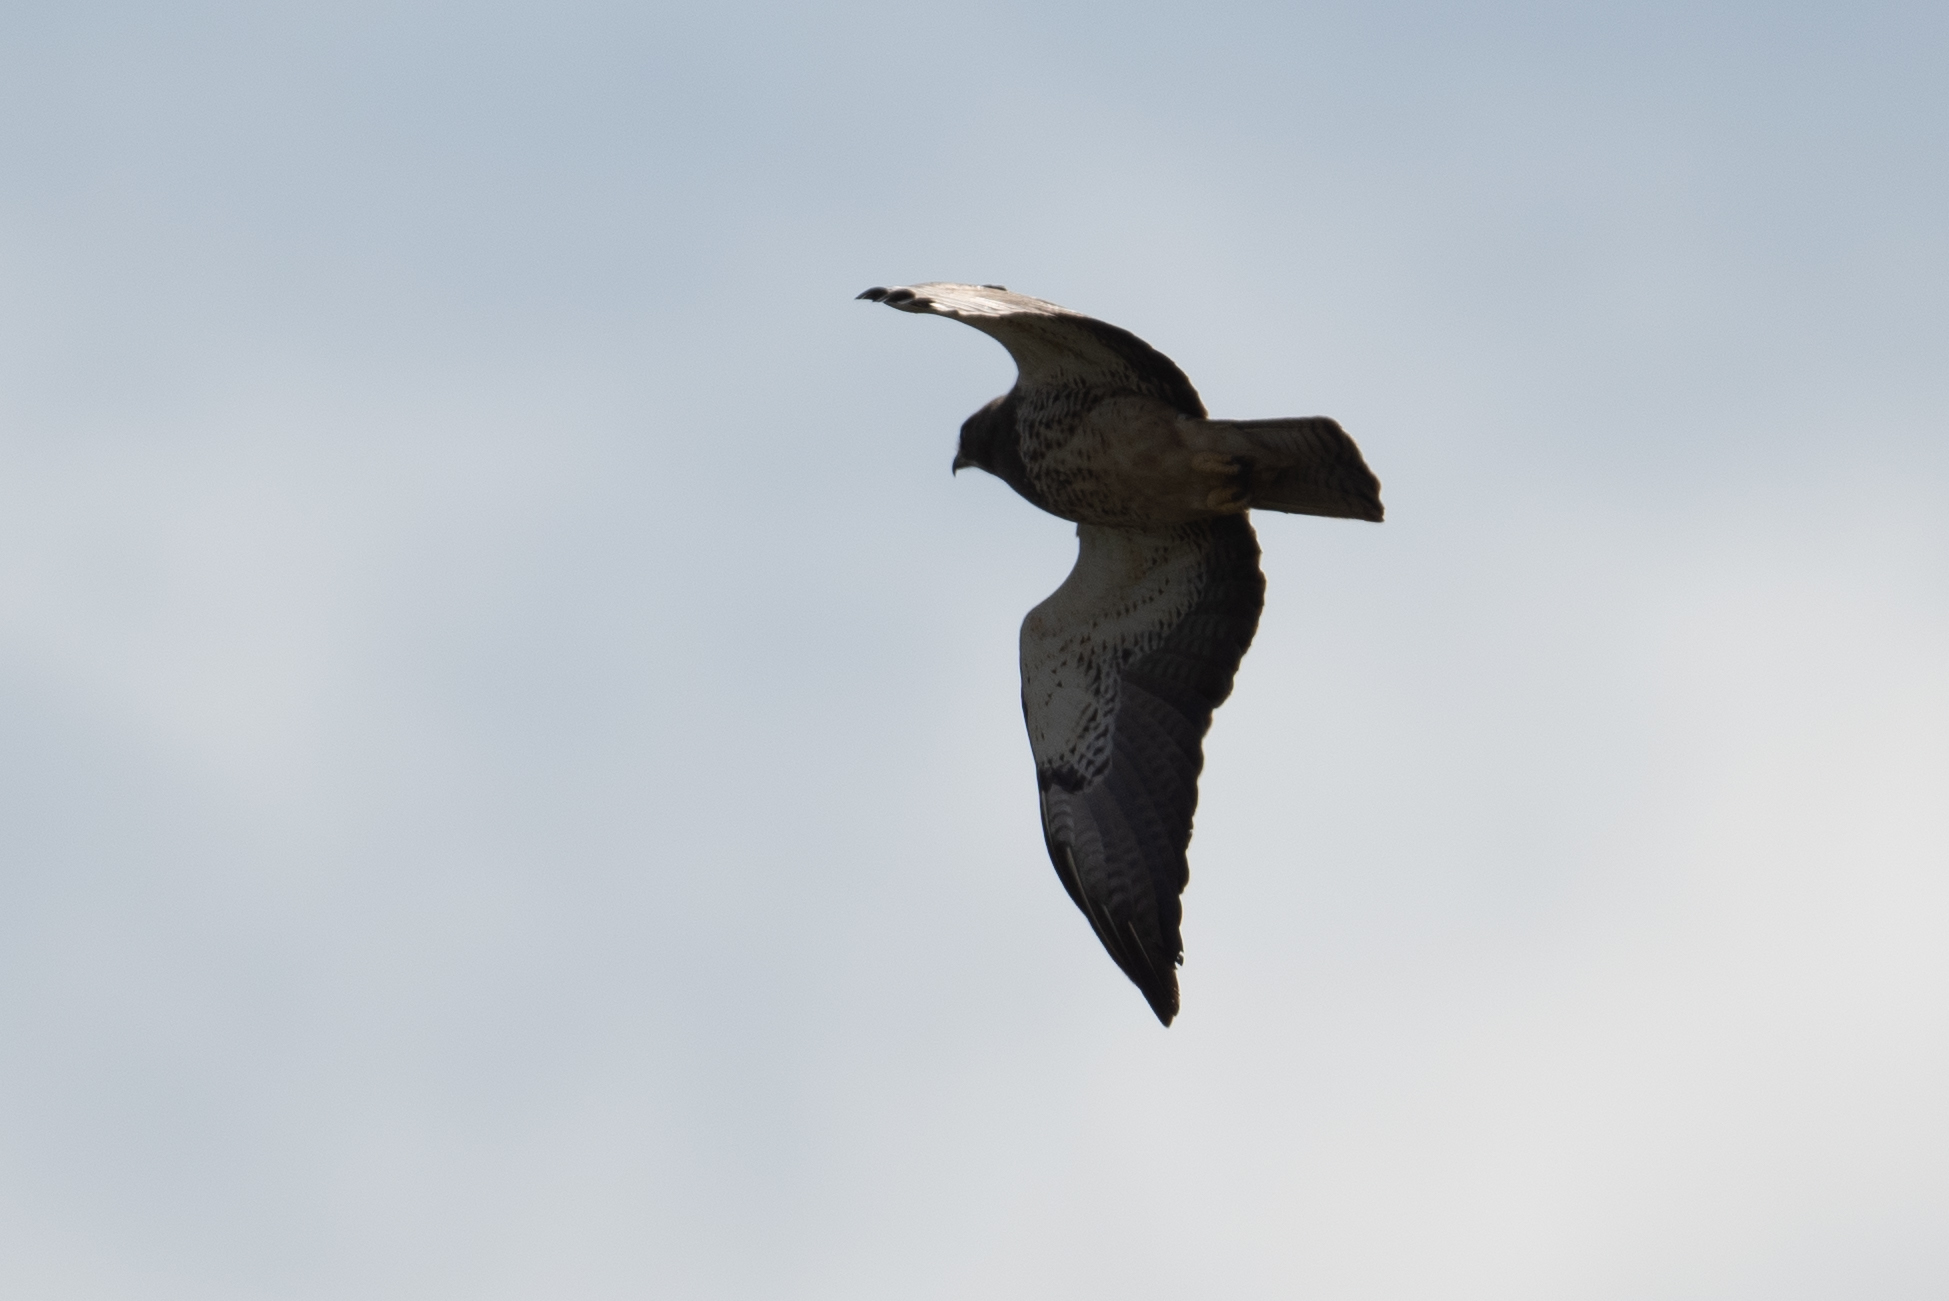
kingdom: Animalia
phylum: Chordata
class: Aves
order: Accipitriformes
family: Accipitridae
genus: Buteo
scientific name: Buteo swainsoni
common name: Swainson's hawk
